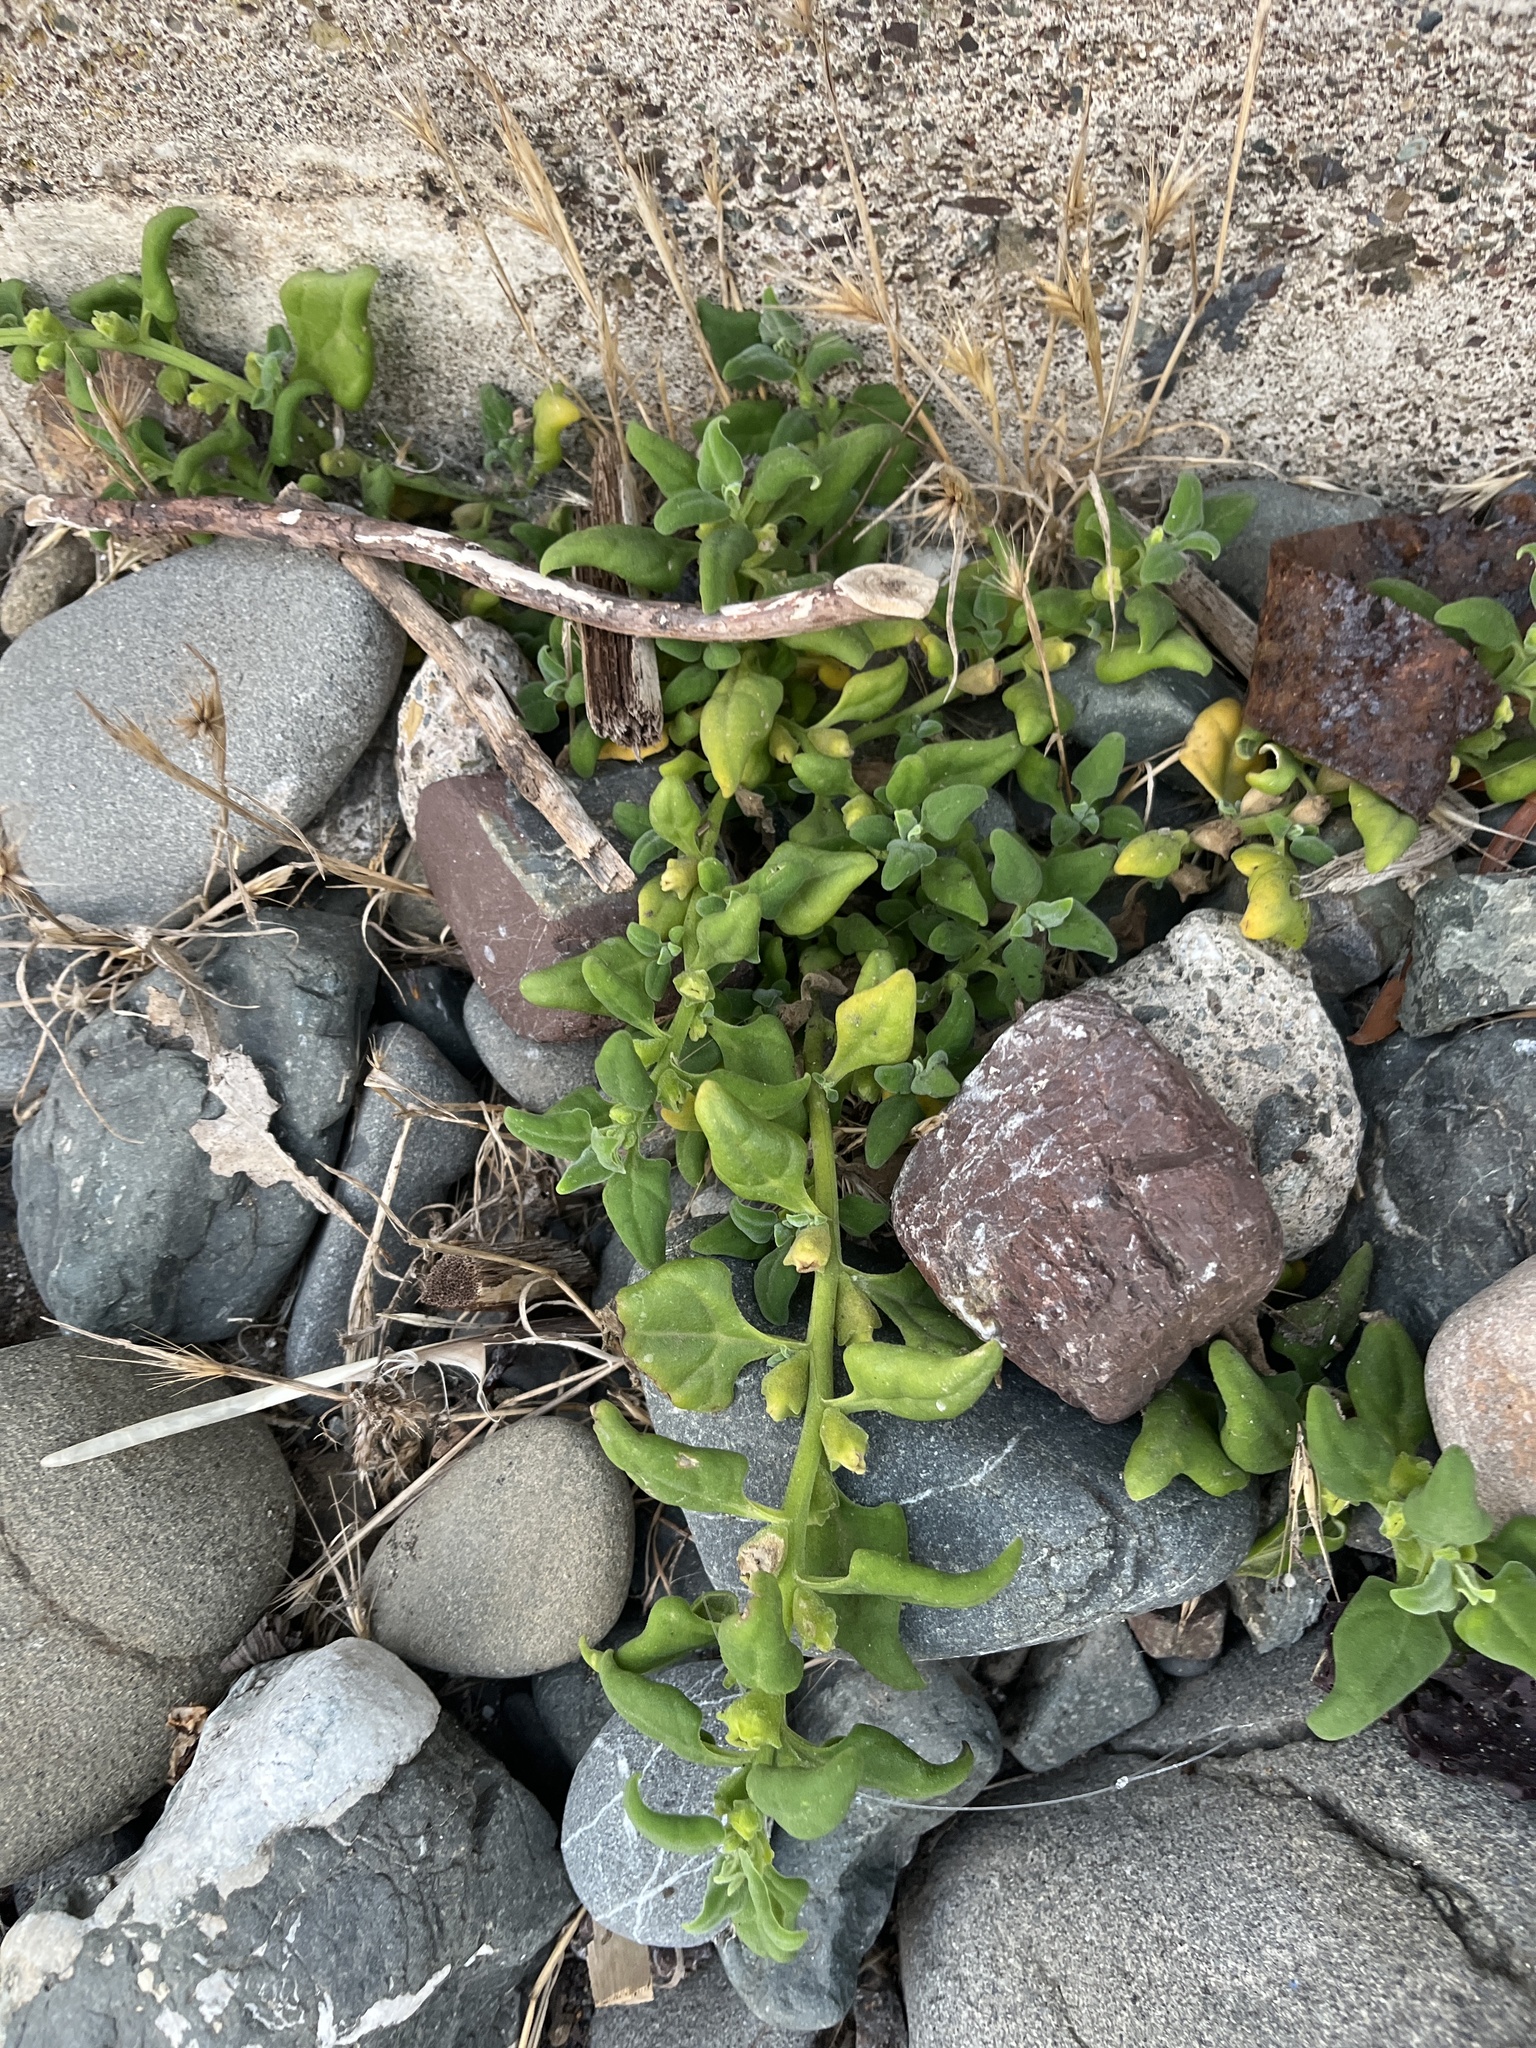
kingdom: Plantae
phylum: Tracheophyta
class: Magnoliopsida
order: Caryophyllales
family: Aizoaceae
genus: Tetragonia
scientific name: Tetragonia tetragonoides
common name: New zealand-spinach
